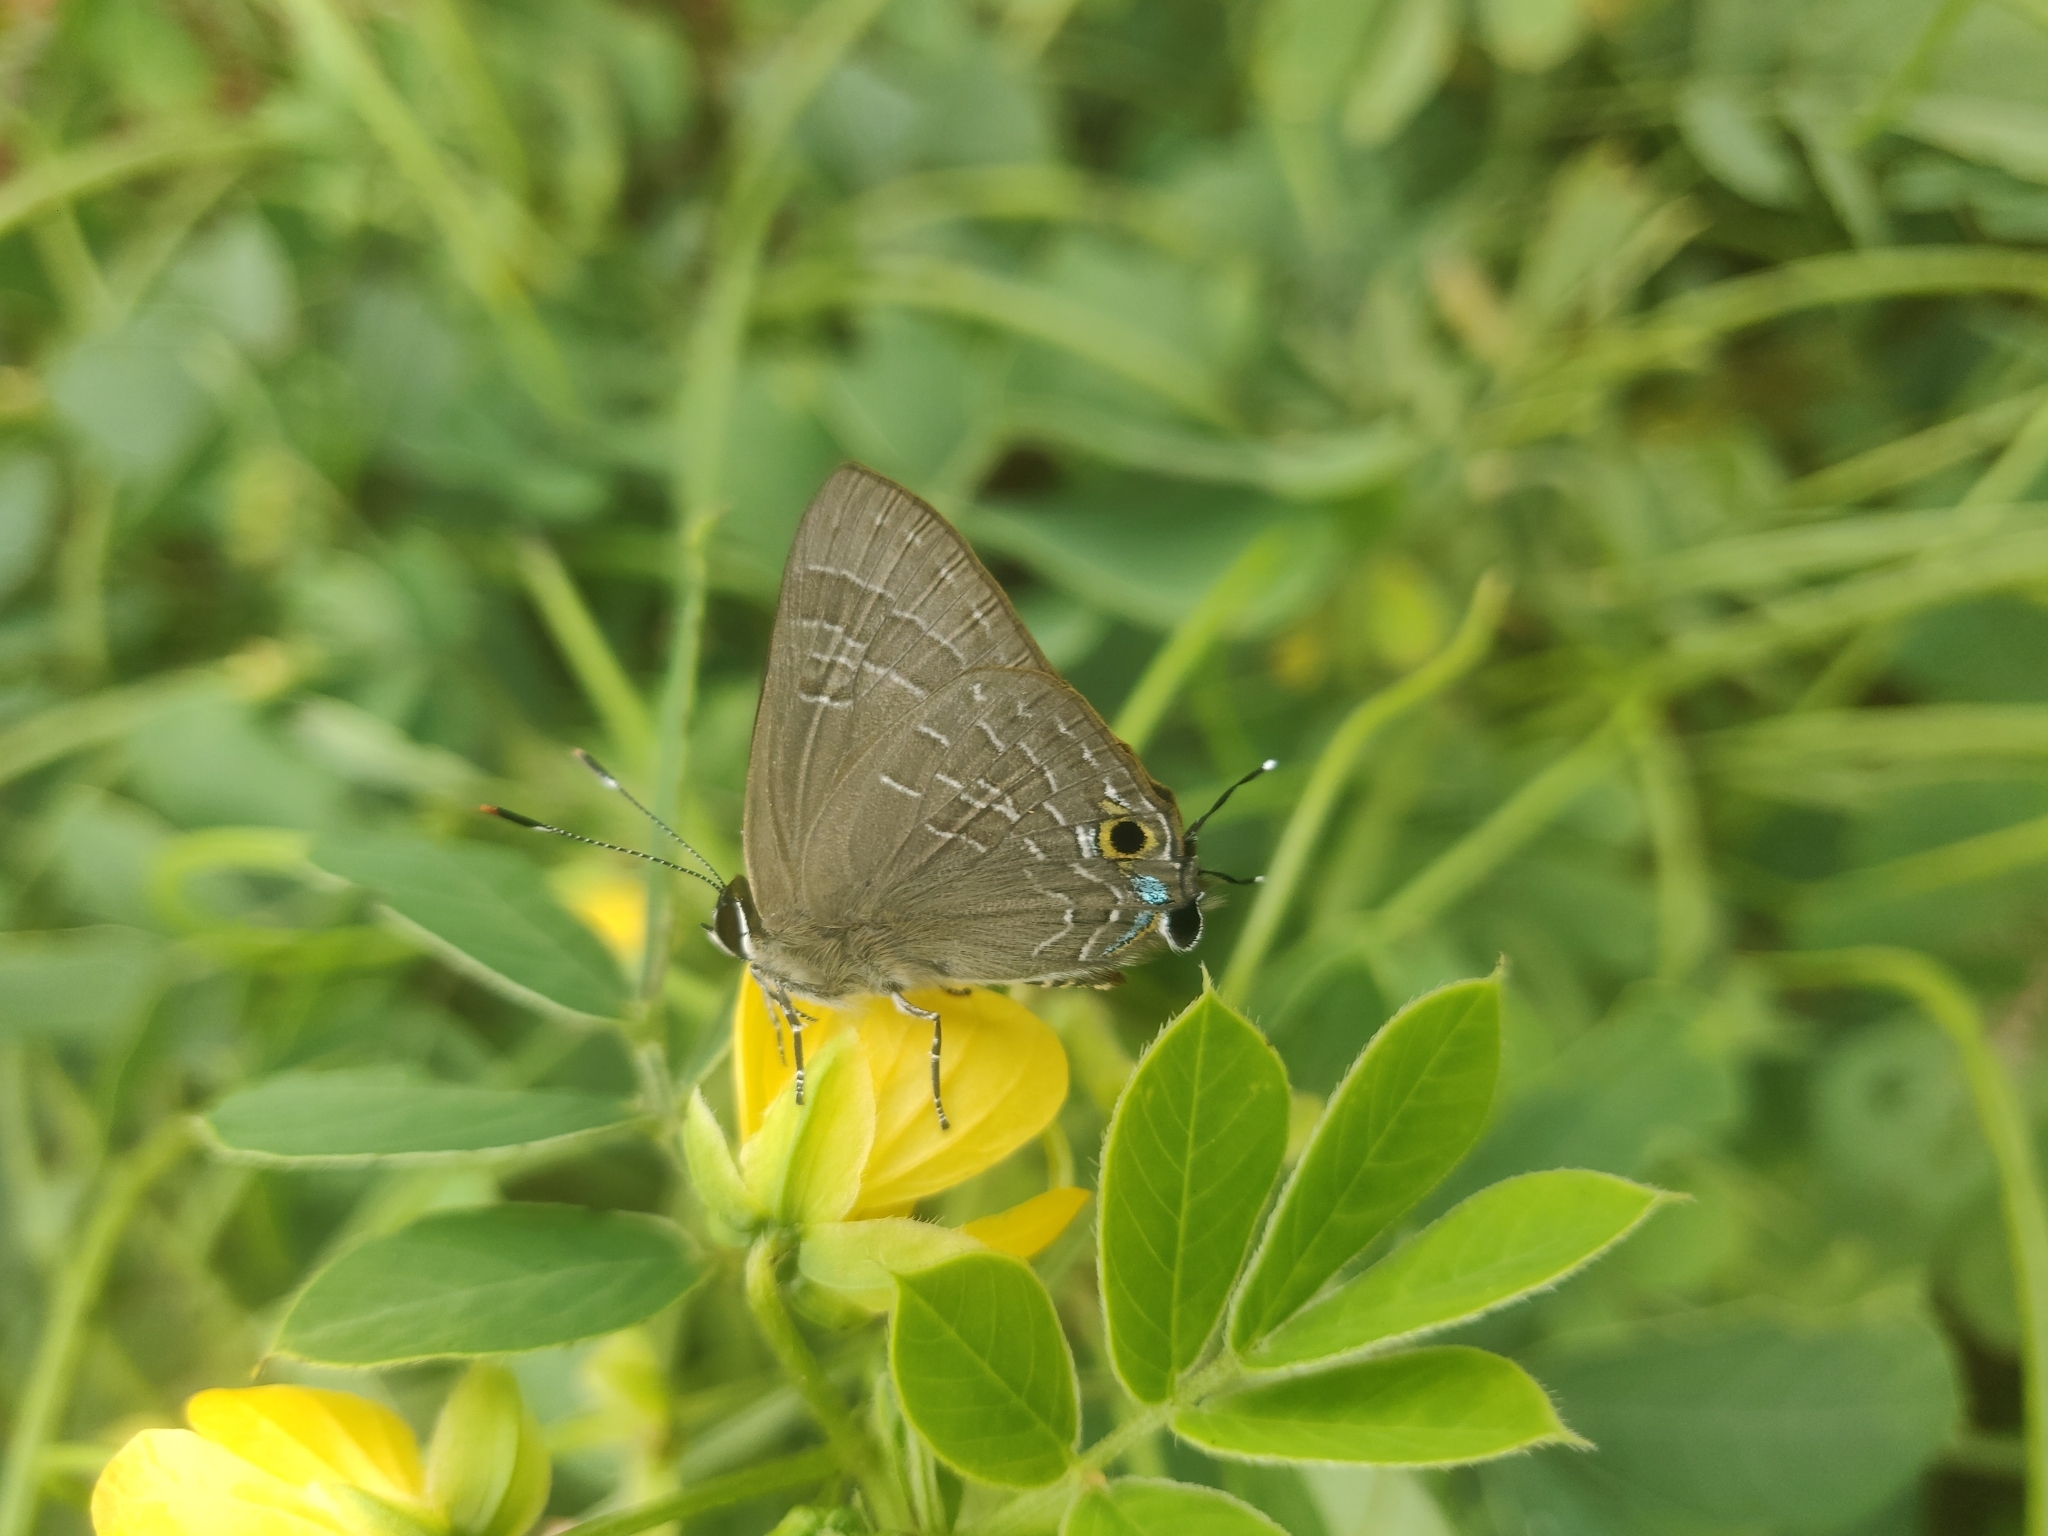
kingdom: Animalia
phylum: Arthropoda
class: Insecta
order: Lepidoptera
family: Lycaenidae
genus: Deudorix
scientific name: Deudorix epijarbas
